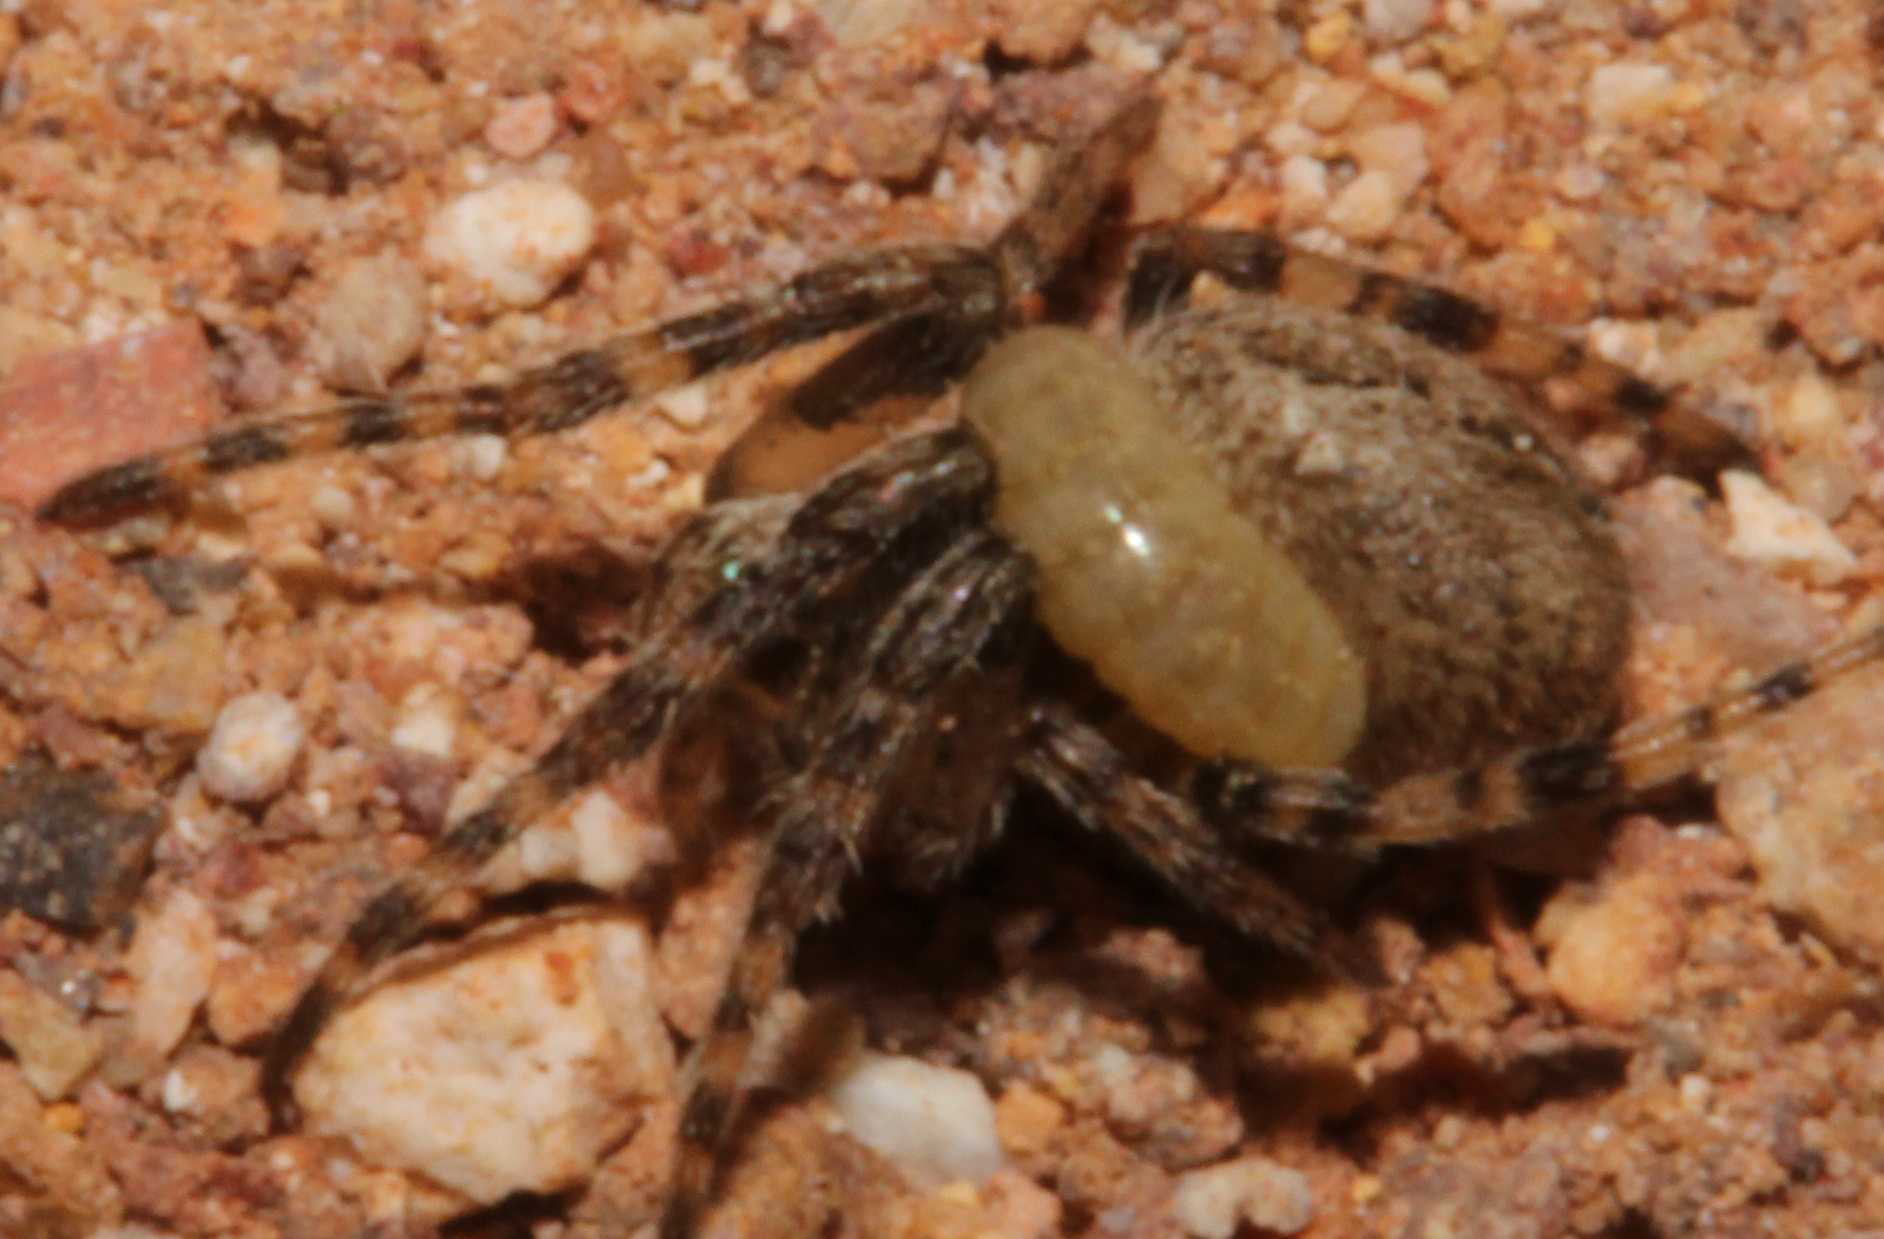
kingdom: Animalia
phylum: Arthropoda
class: Insecta
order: Hymenoptera
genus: Ephialtina
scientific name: Ephialtina
